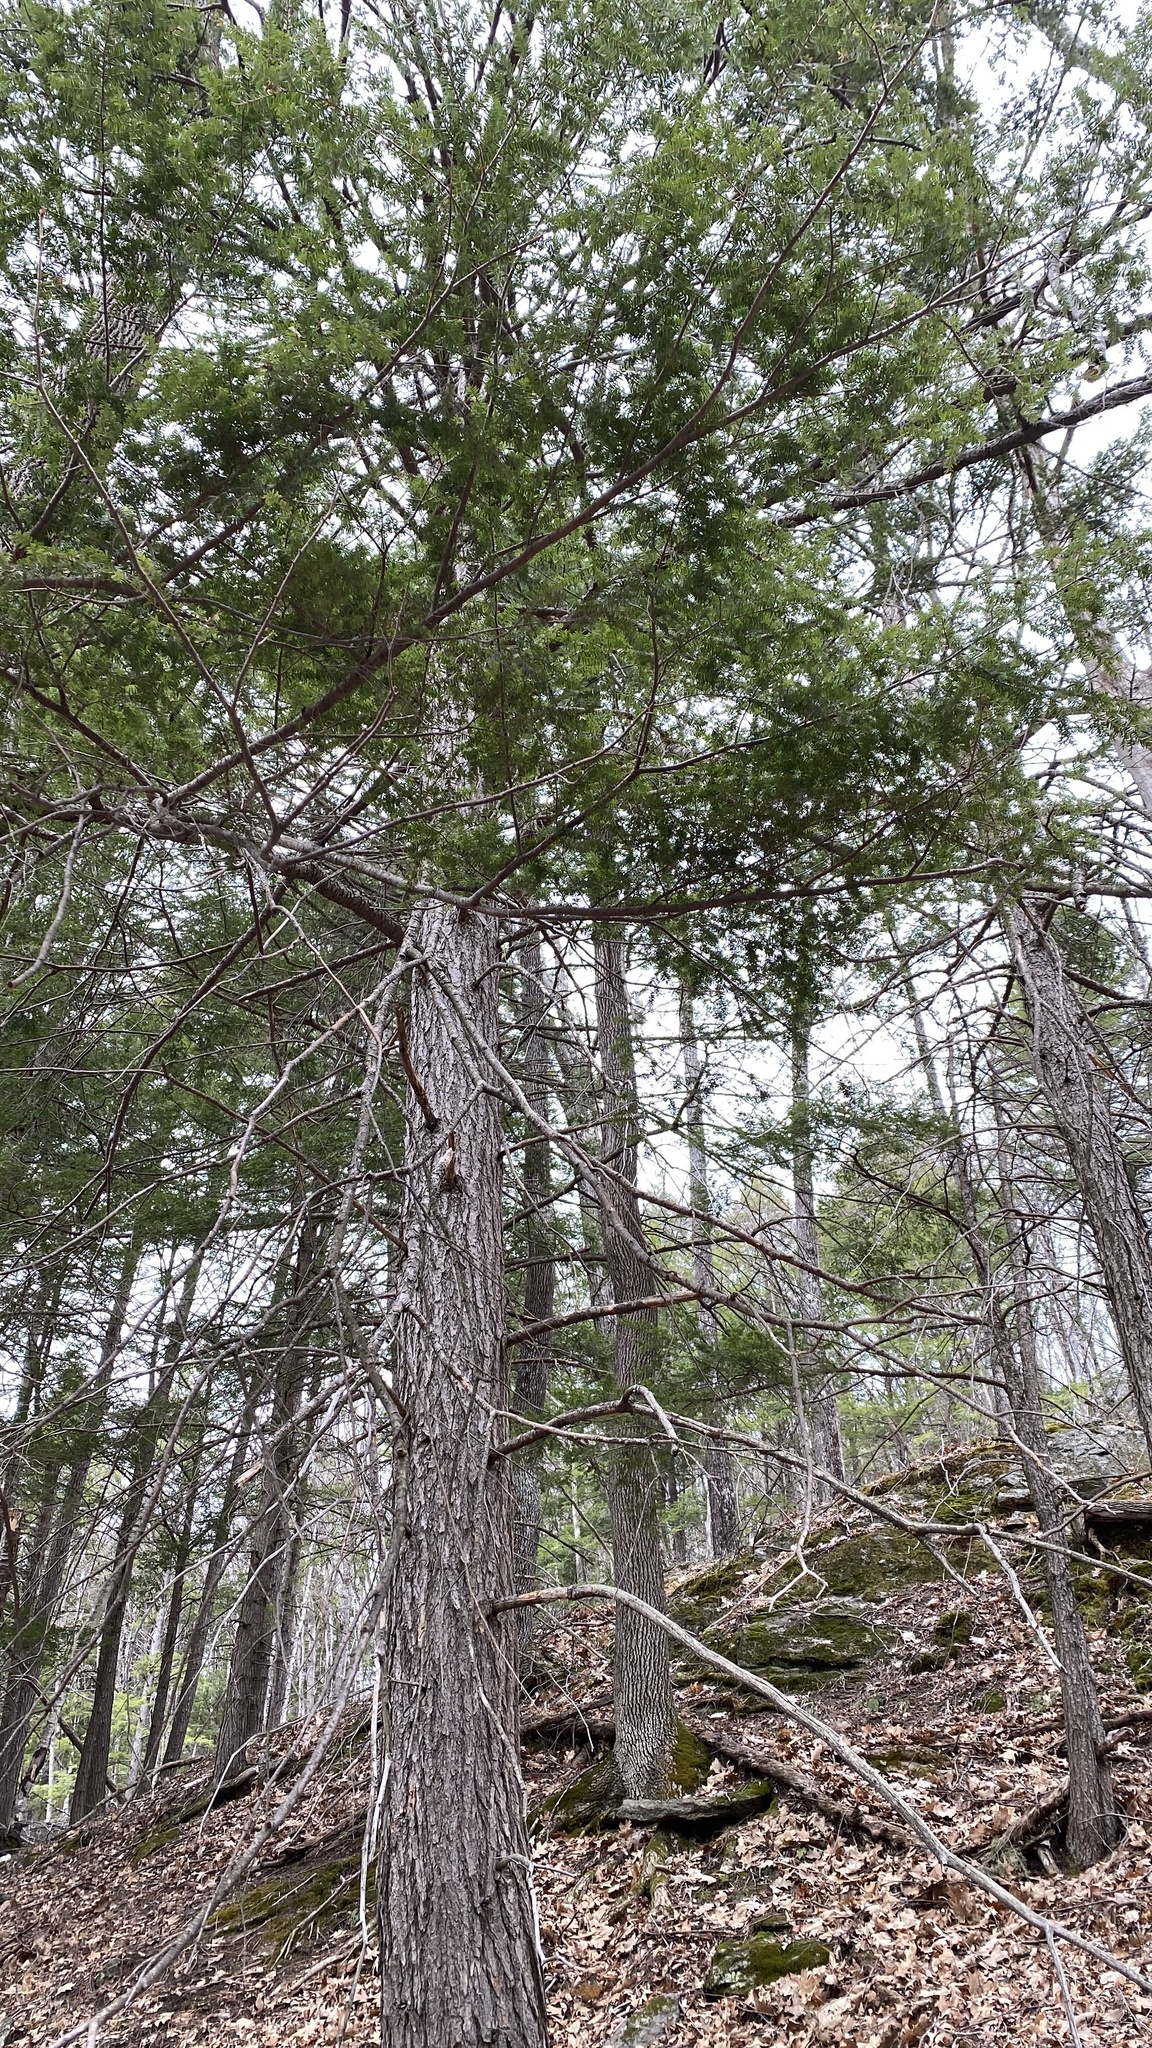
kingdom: Plantae
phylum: Tracheophyta
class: Pinopsida
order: Pinales
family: Pinaceae
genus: Tsuga
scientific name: Tsuga canadensis
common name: Eastern hemlock
